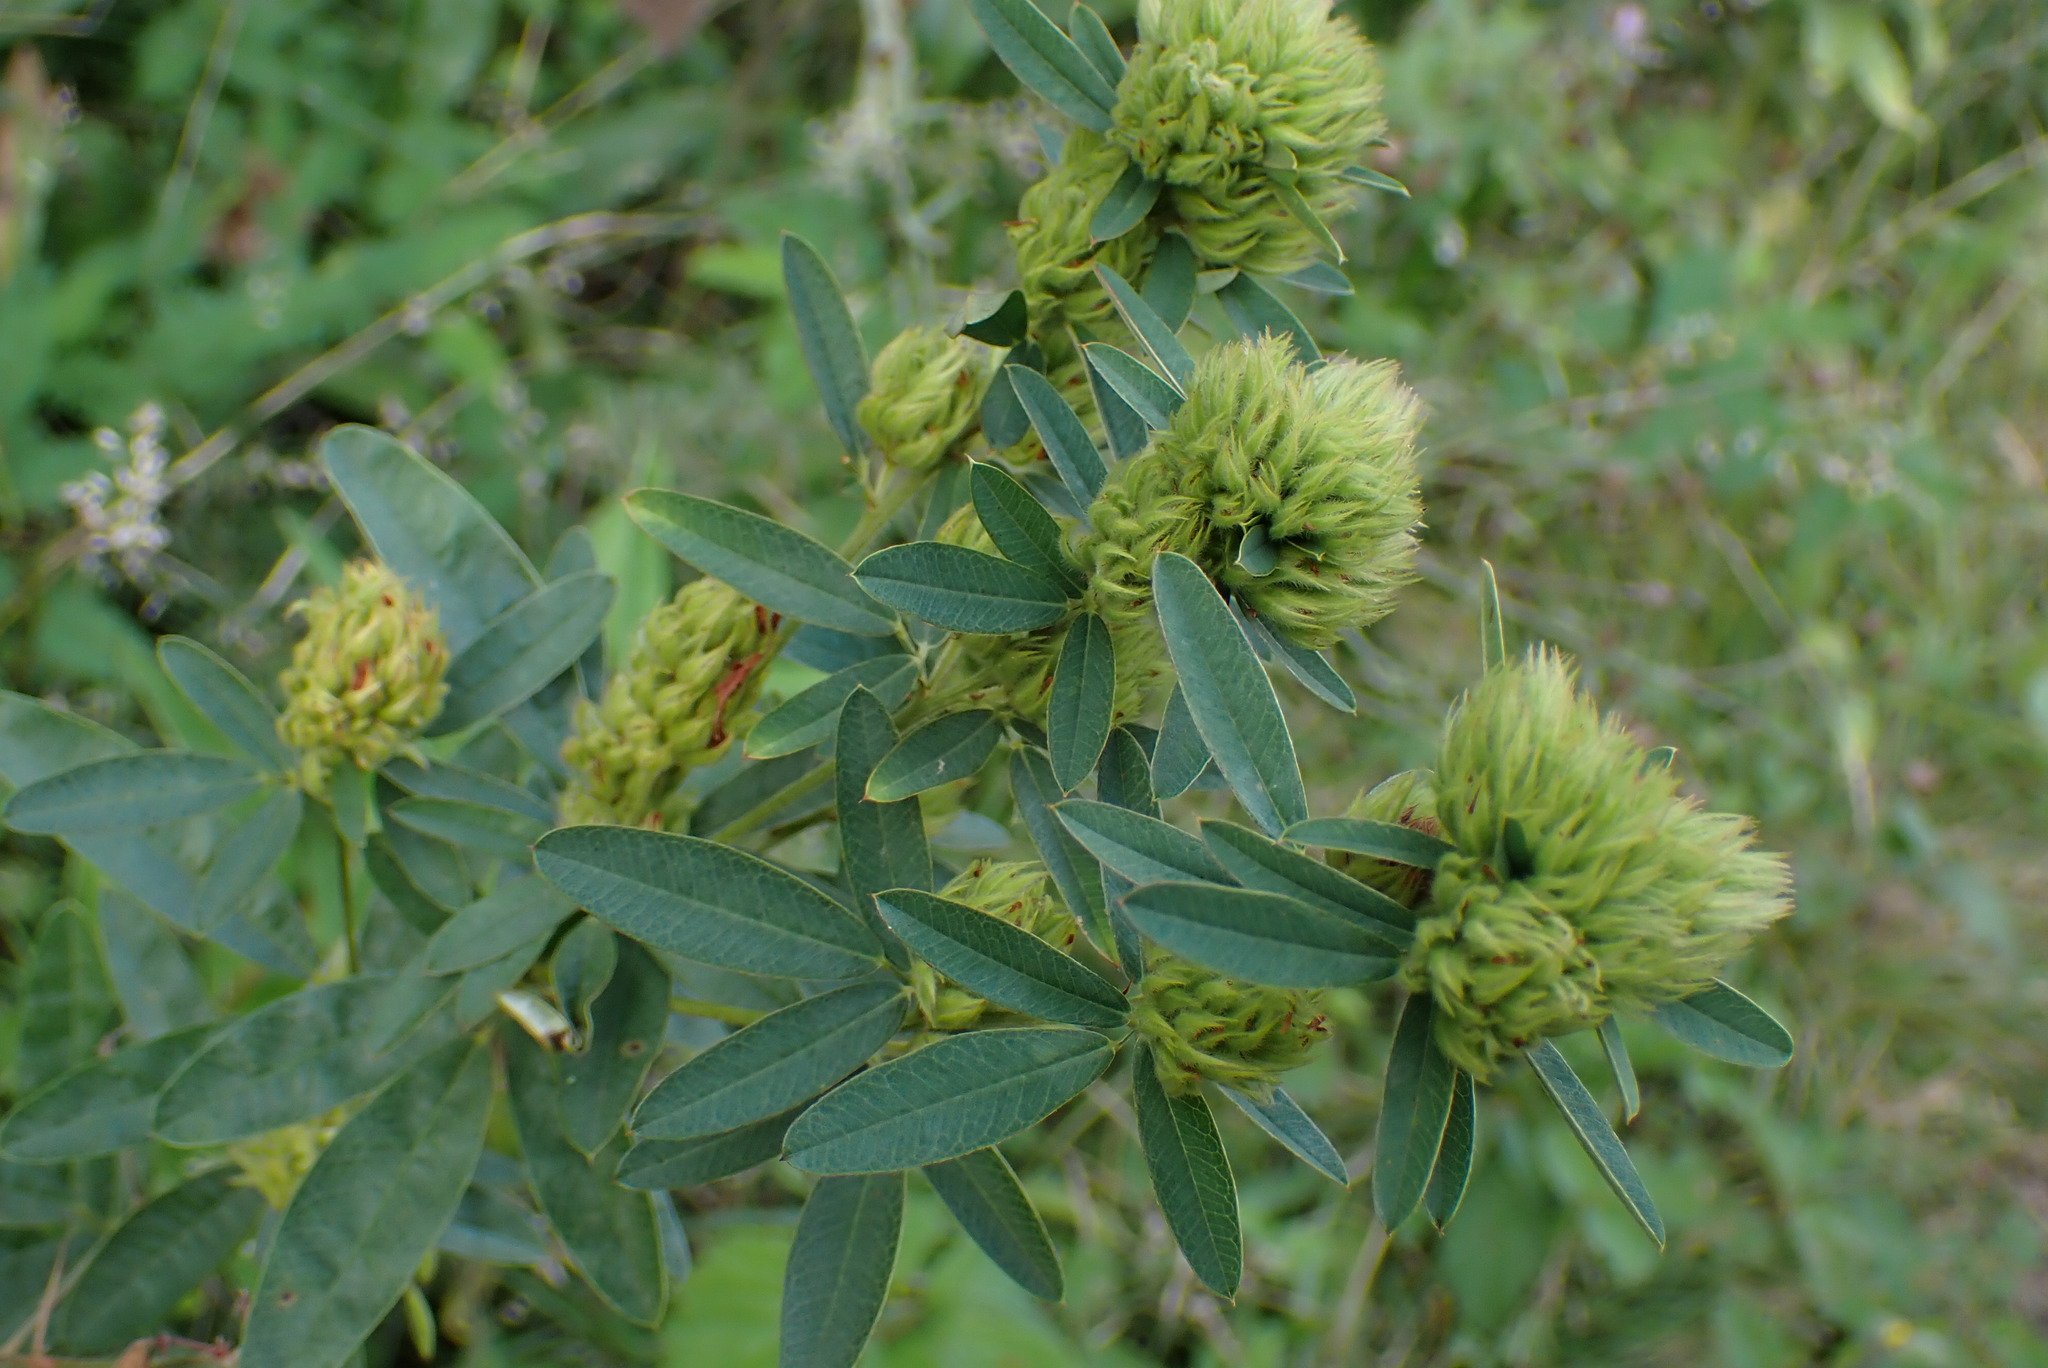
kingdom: Plantae
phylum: Tracheophyta
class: Magnoliopsida
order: Fabales
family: Fabaceae
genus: Lespedeza
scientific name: Lespedeza capitata
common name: Dusty clover
